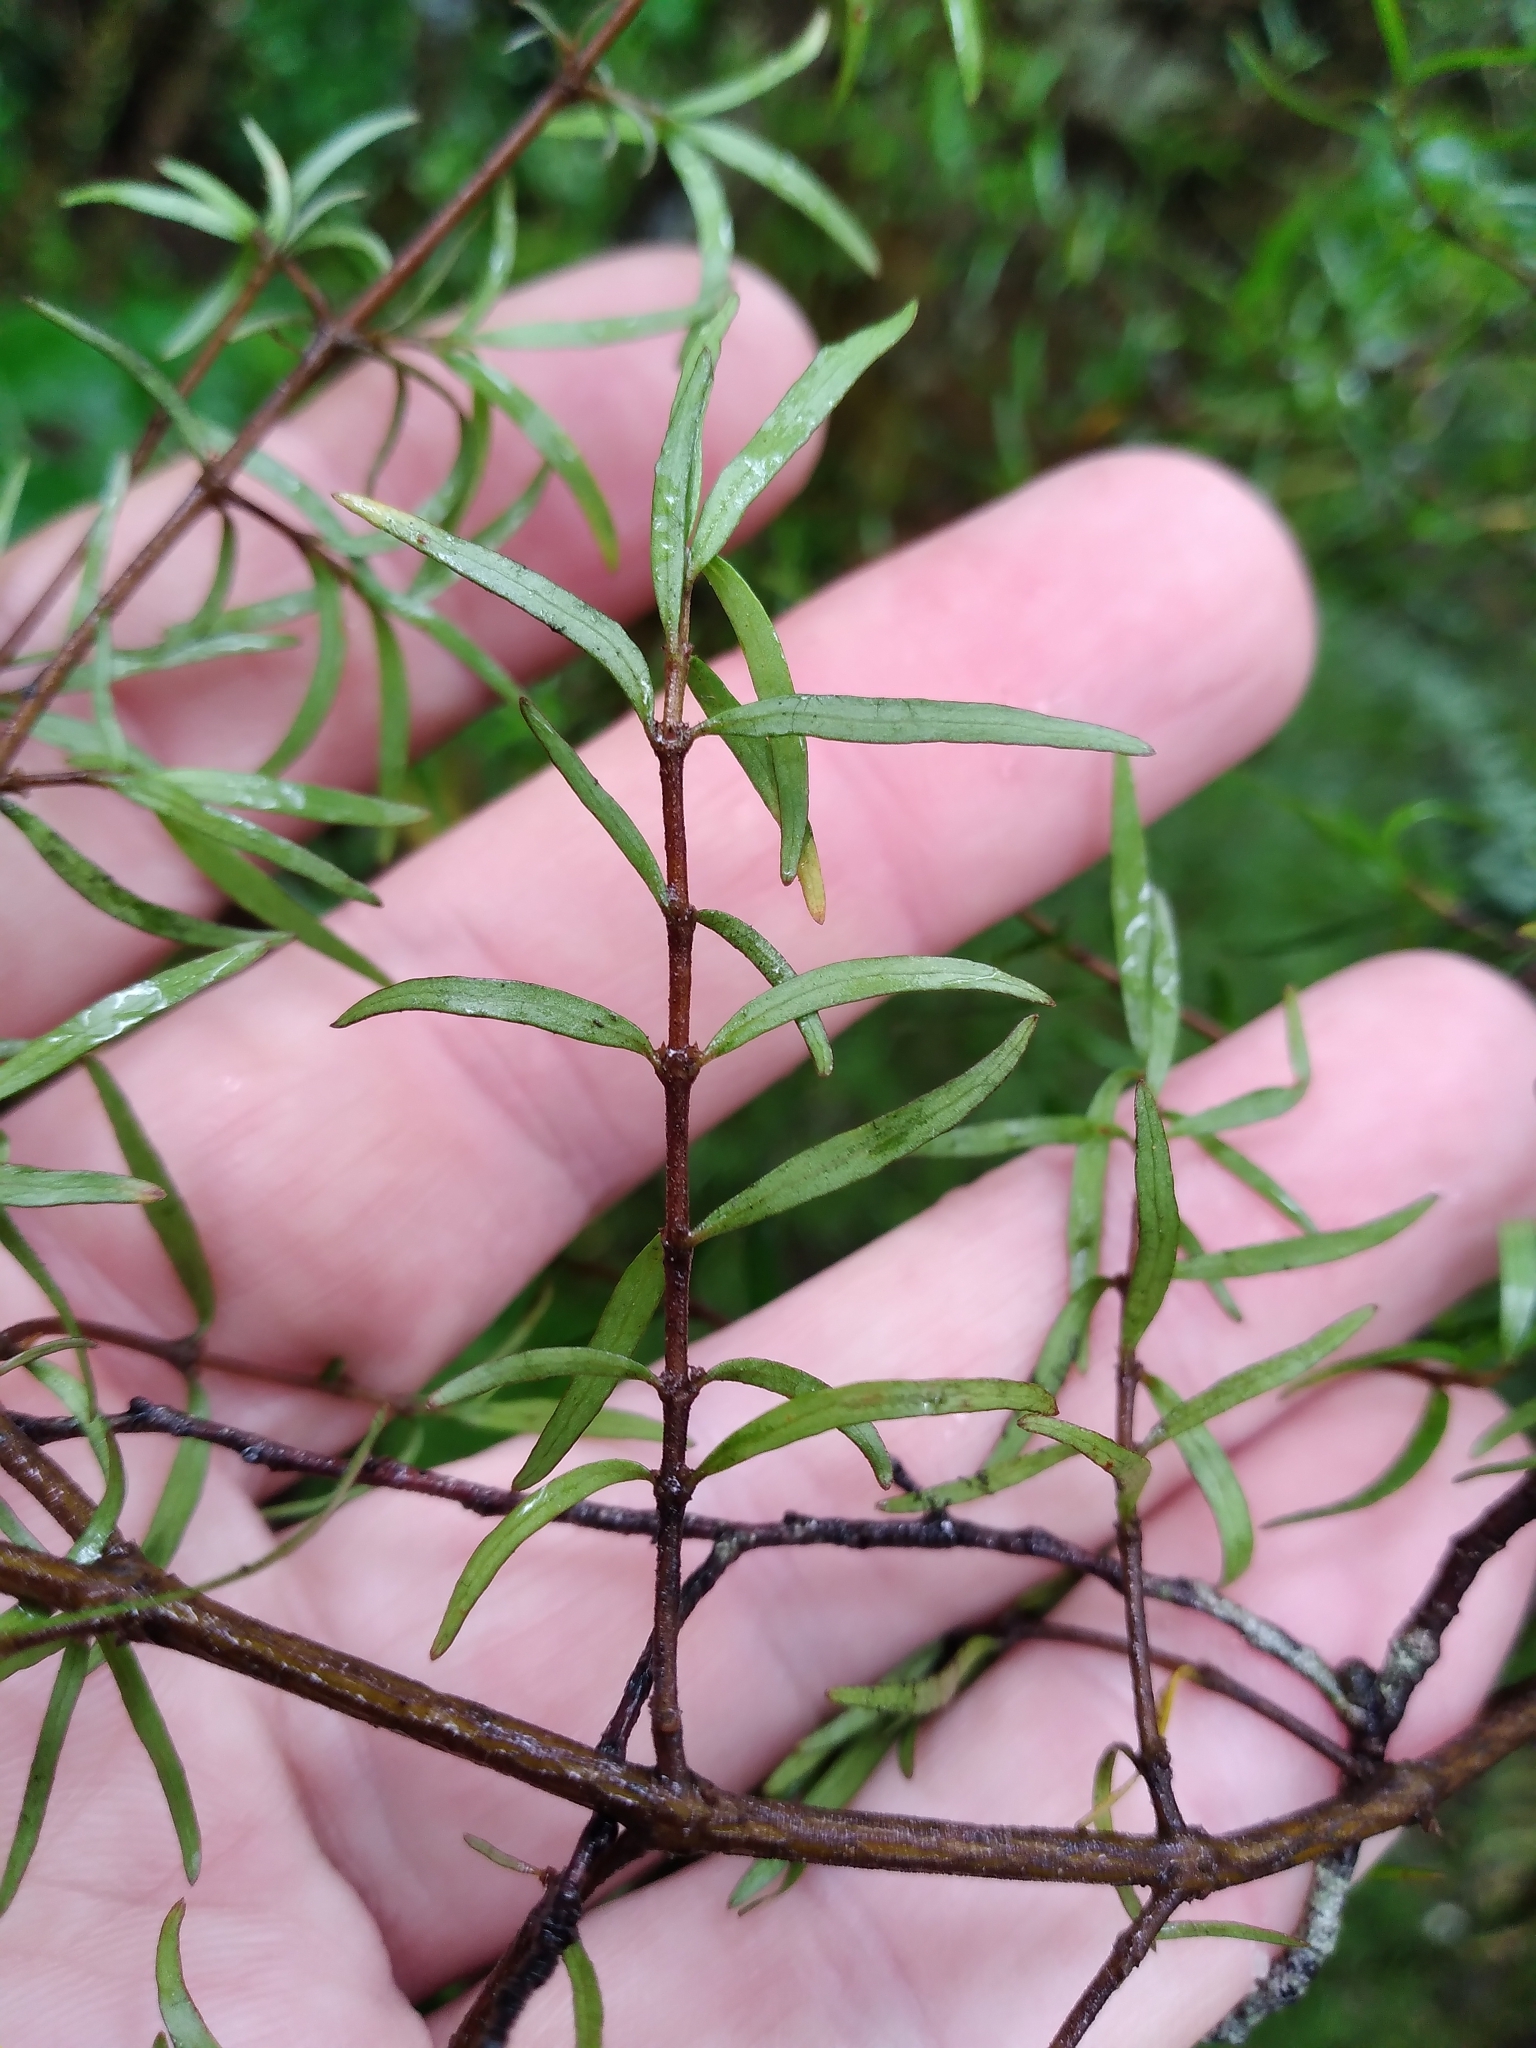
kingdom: Plantae
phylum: Tracheophyta
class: Magnoliopsida
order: Gentianales
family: Rubiaceae
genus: Coprosma
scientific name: Coprosma linariifolia
